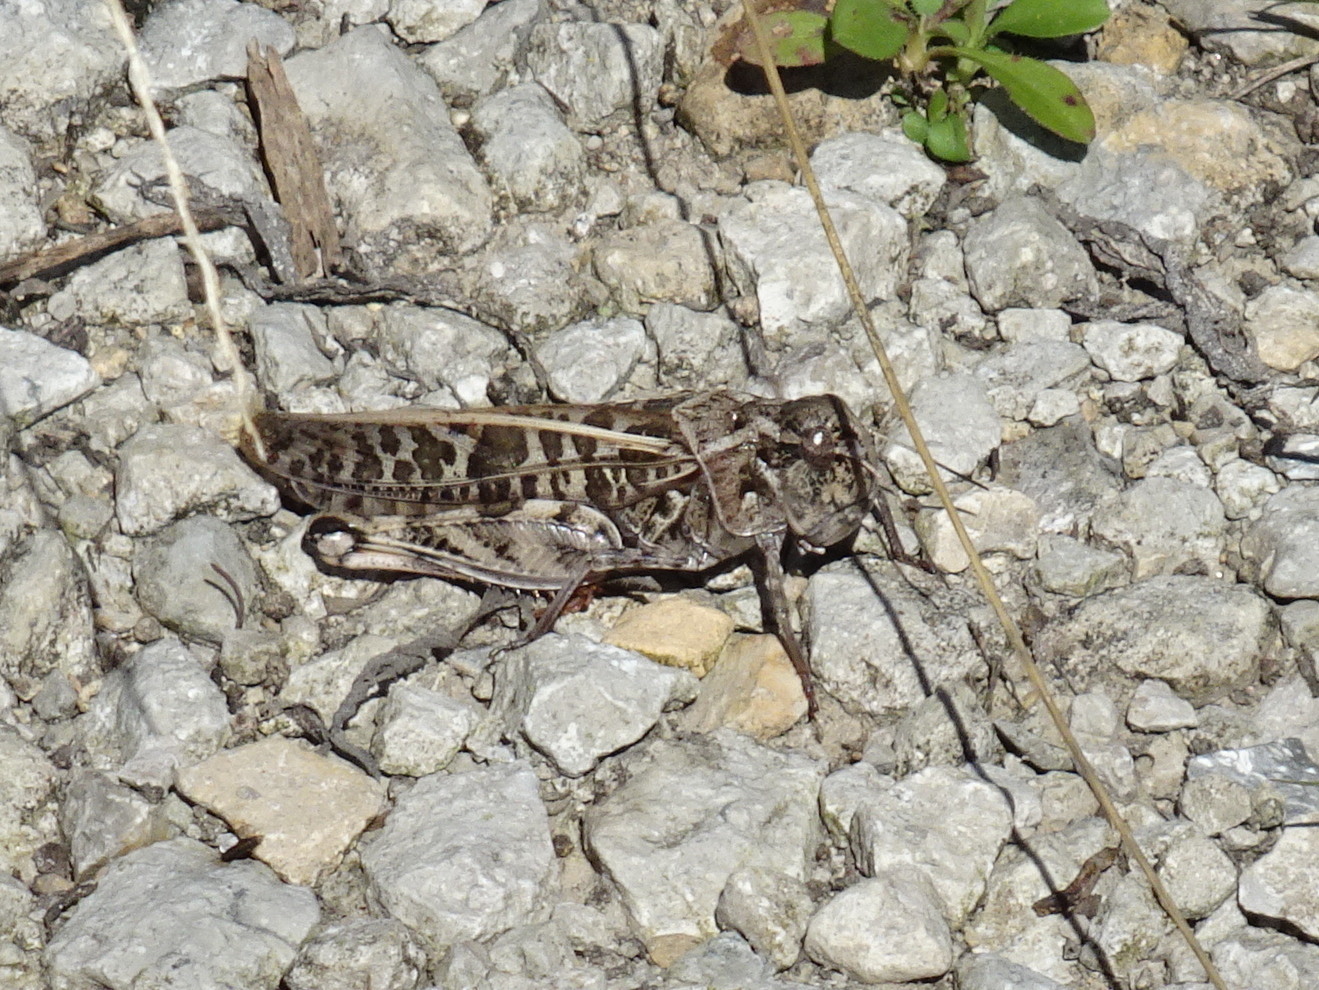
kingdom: Animalia
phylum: Arthropoda
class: Insecta
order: Orthoptera
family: Acrididae
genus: Hippiscus
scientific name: Hippiscus ocelote
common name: Wrinkled grasshopper
